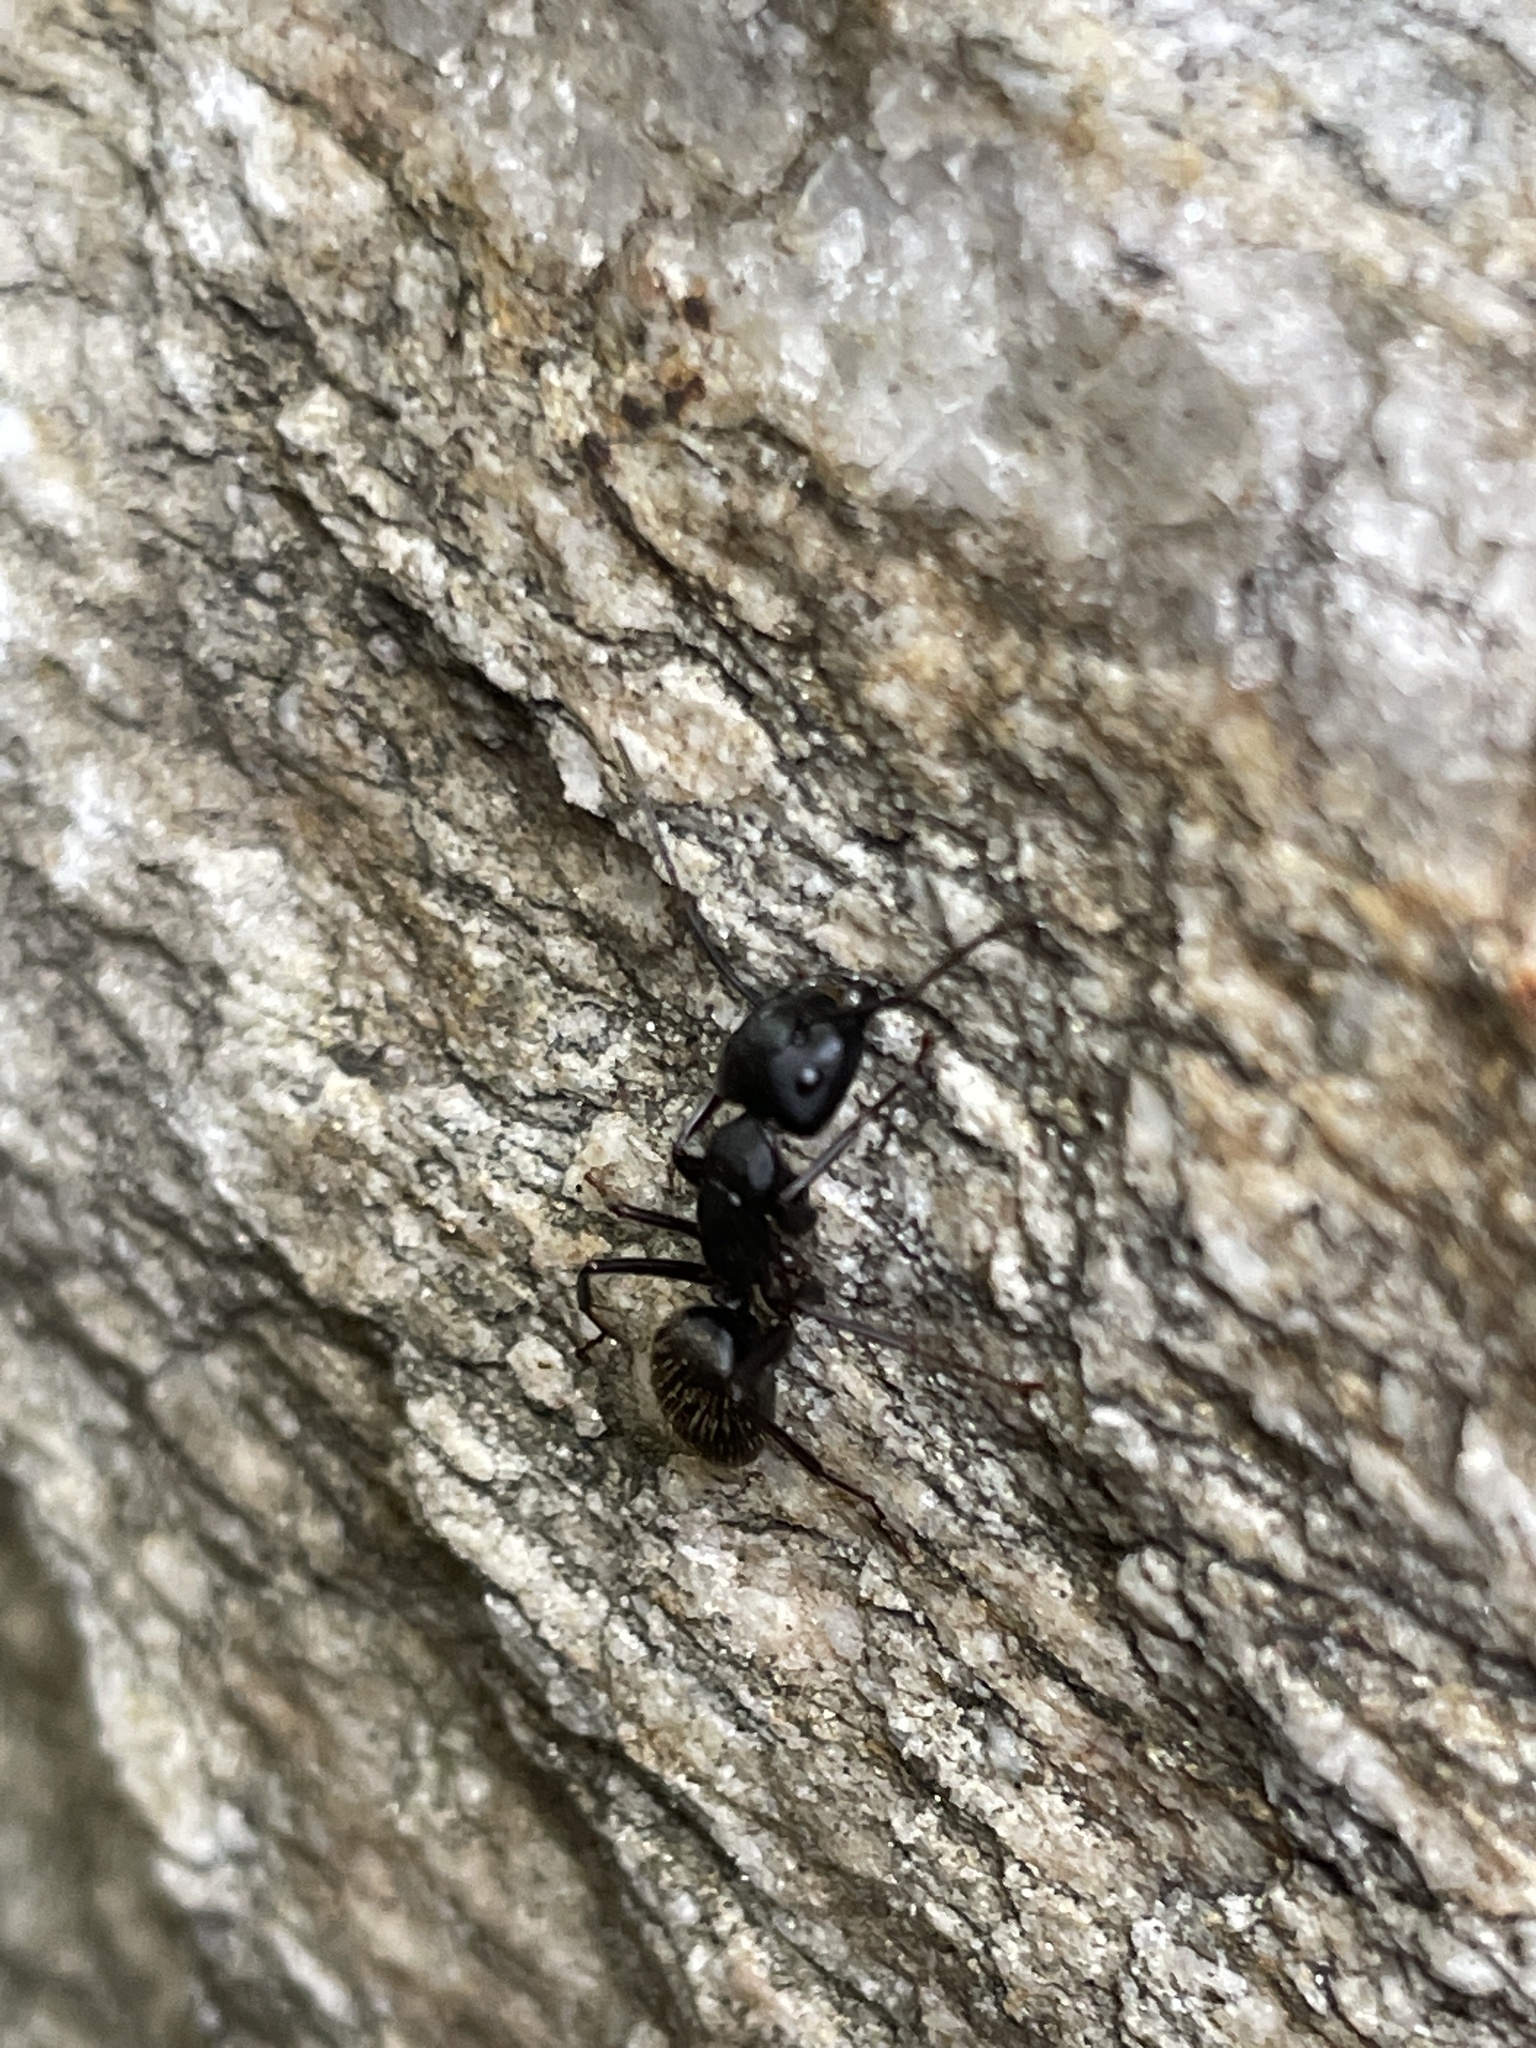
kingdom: Animalia
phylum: Arthropoda
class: Insecta
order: Hymenoptera
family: Formicidae
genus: Camponotus
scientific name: Camponotus pennsylvanicus
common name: Black carpenter ant
